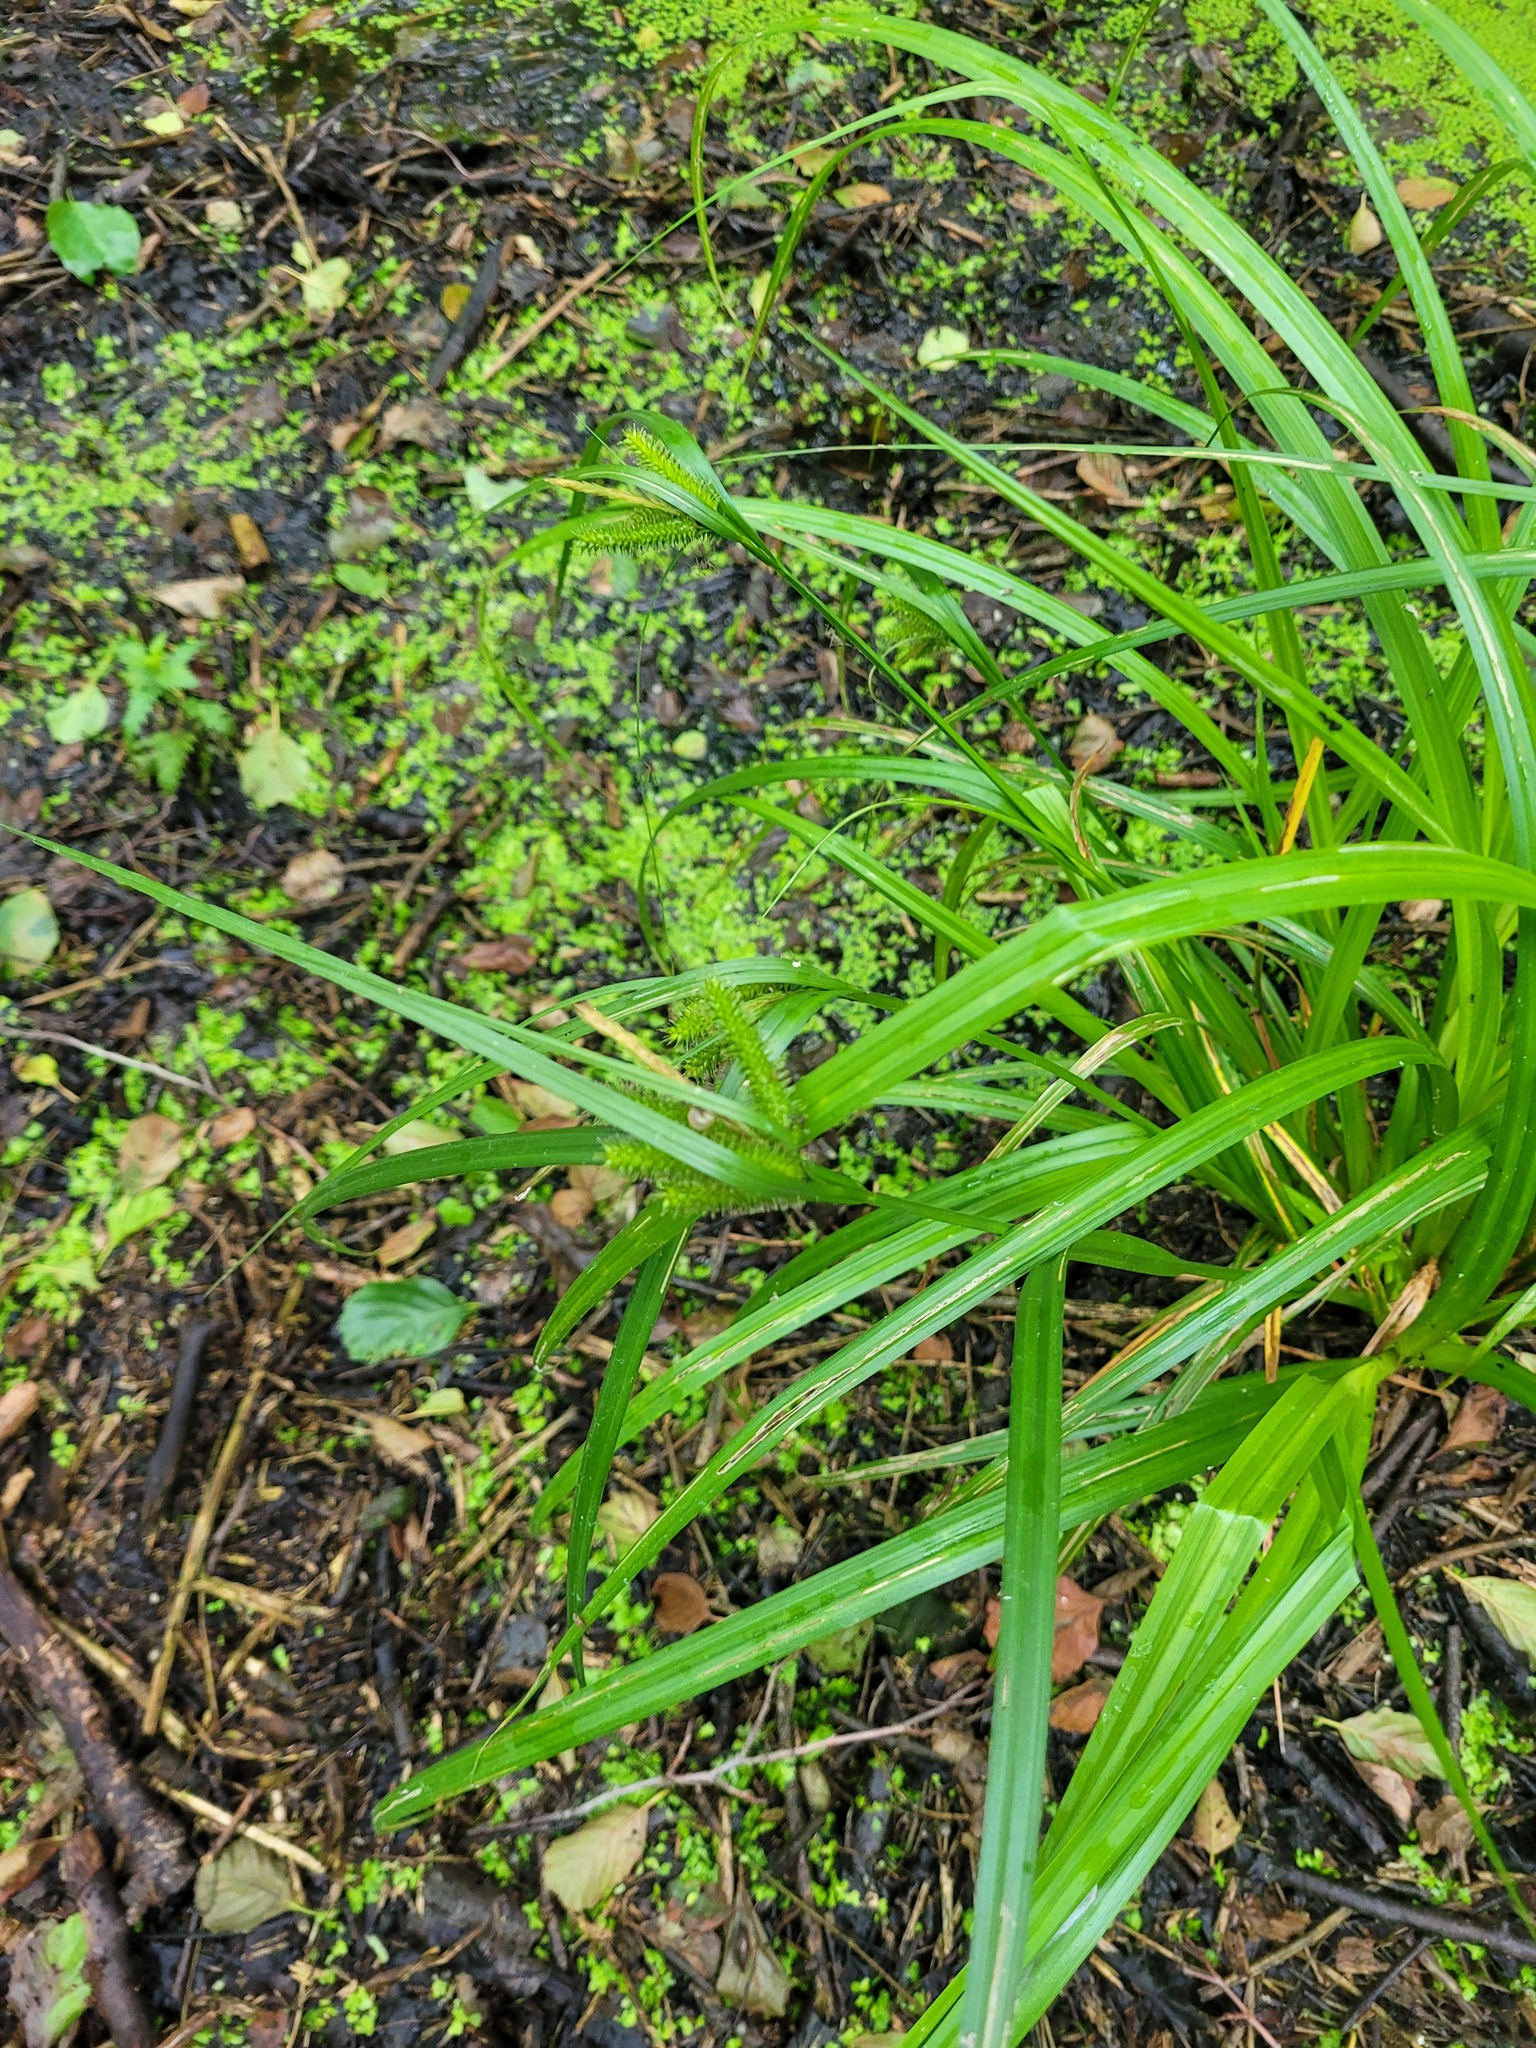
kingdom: Plantae
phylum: Tracheophyta
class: Liliopsida
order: Poales
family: Cyperaceae
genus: Carex
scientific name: Carex pseudocyperus
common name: Cyperus sedge
